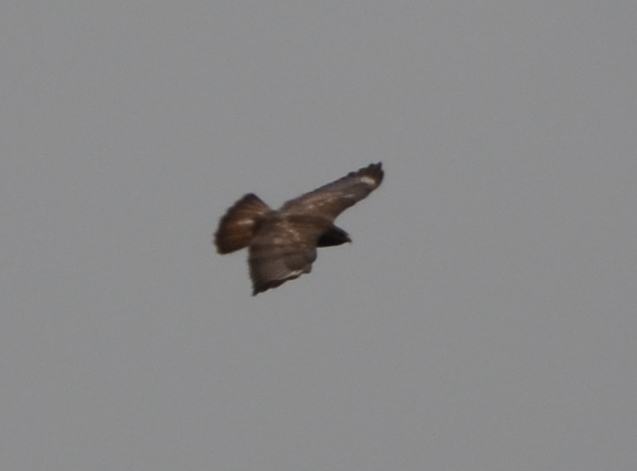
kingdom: Animalia
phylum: Chordata
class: Aves
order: Accipitriformes
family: Accipitridae
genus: Buteo
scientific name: Buteo buteo
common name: Common buzzard
